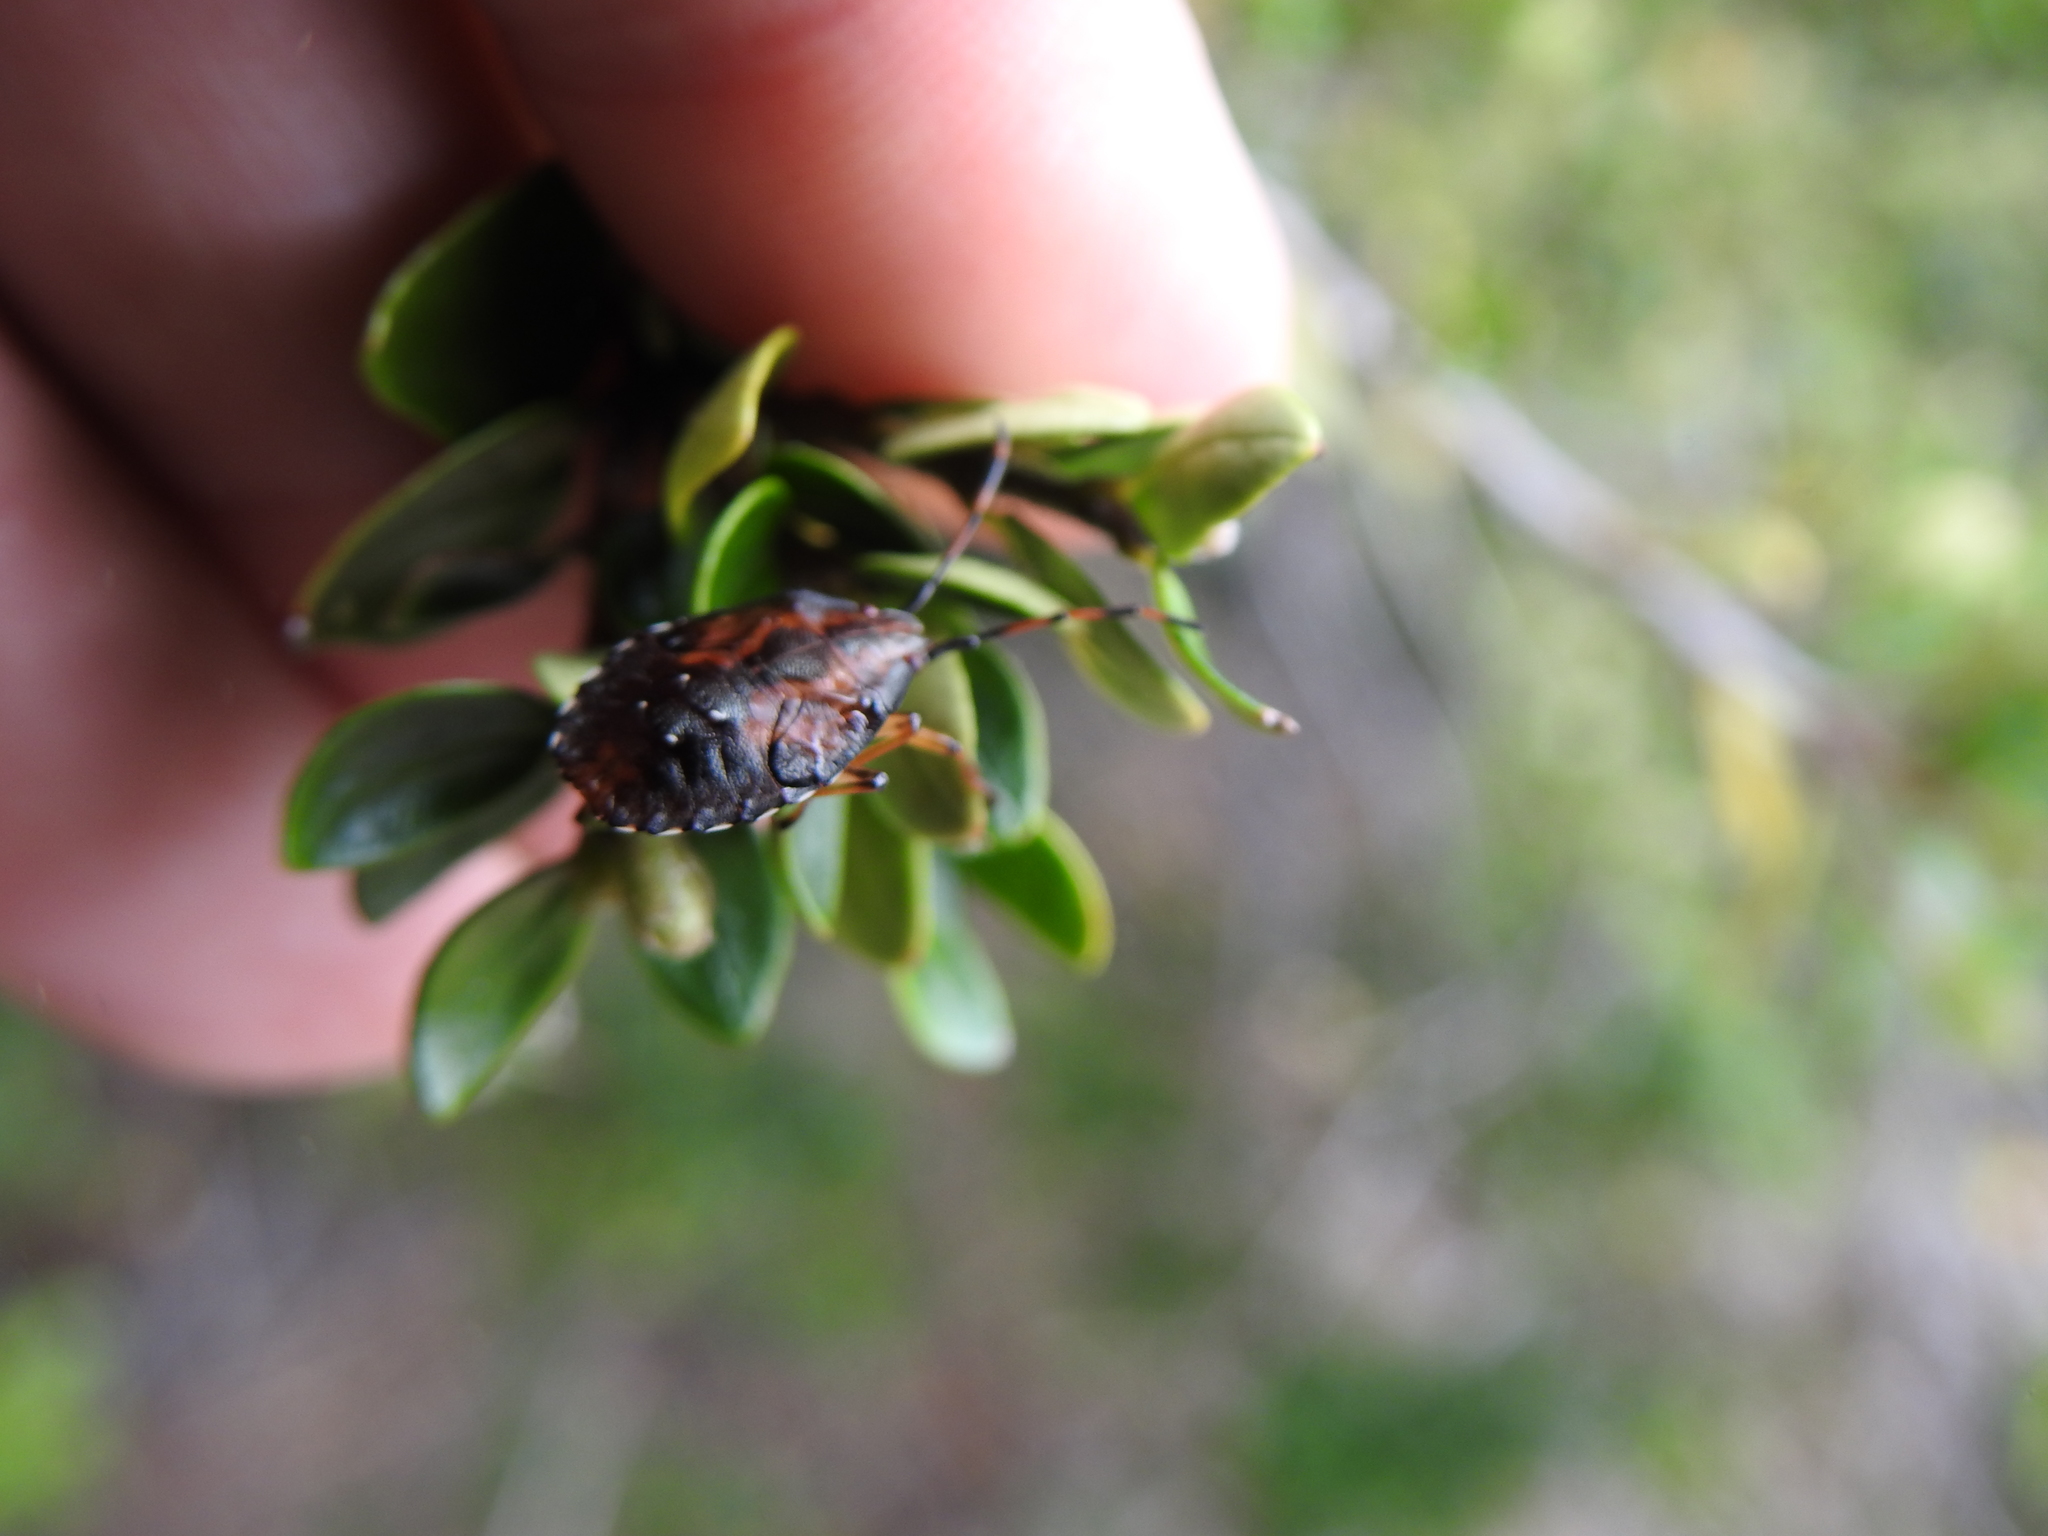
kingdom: Animalia
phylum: Arthropoda
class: Insecta
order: Hemiptera
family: Acanthosomatidae
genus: Planois
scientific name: Planois patagonus
